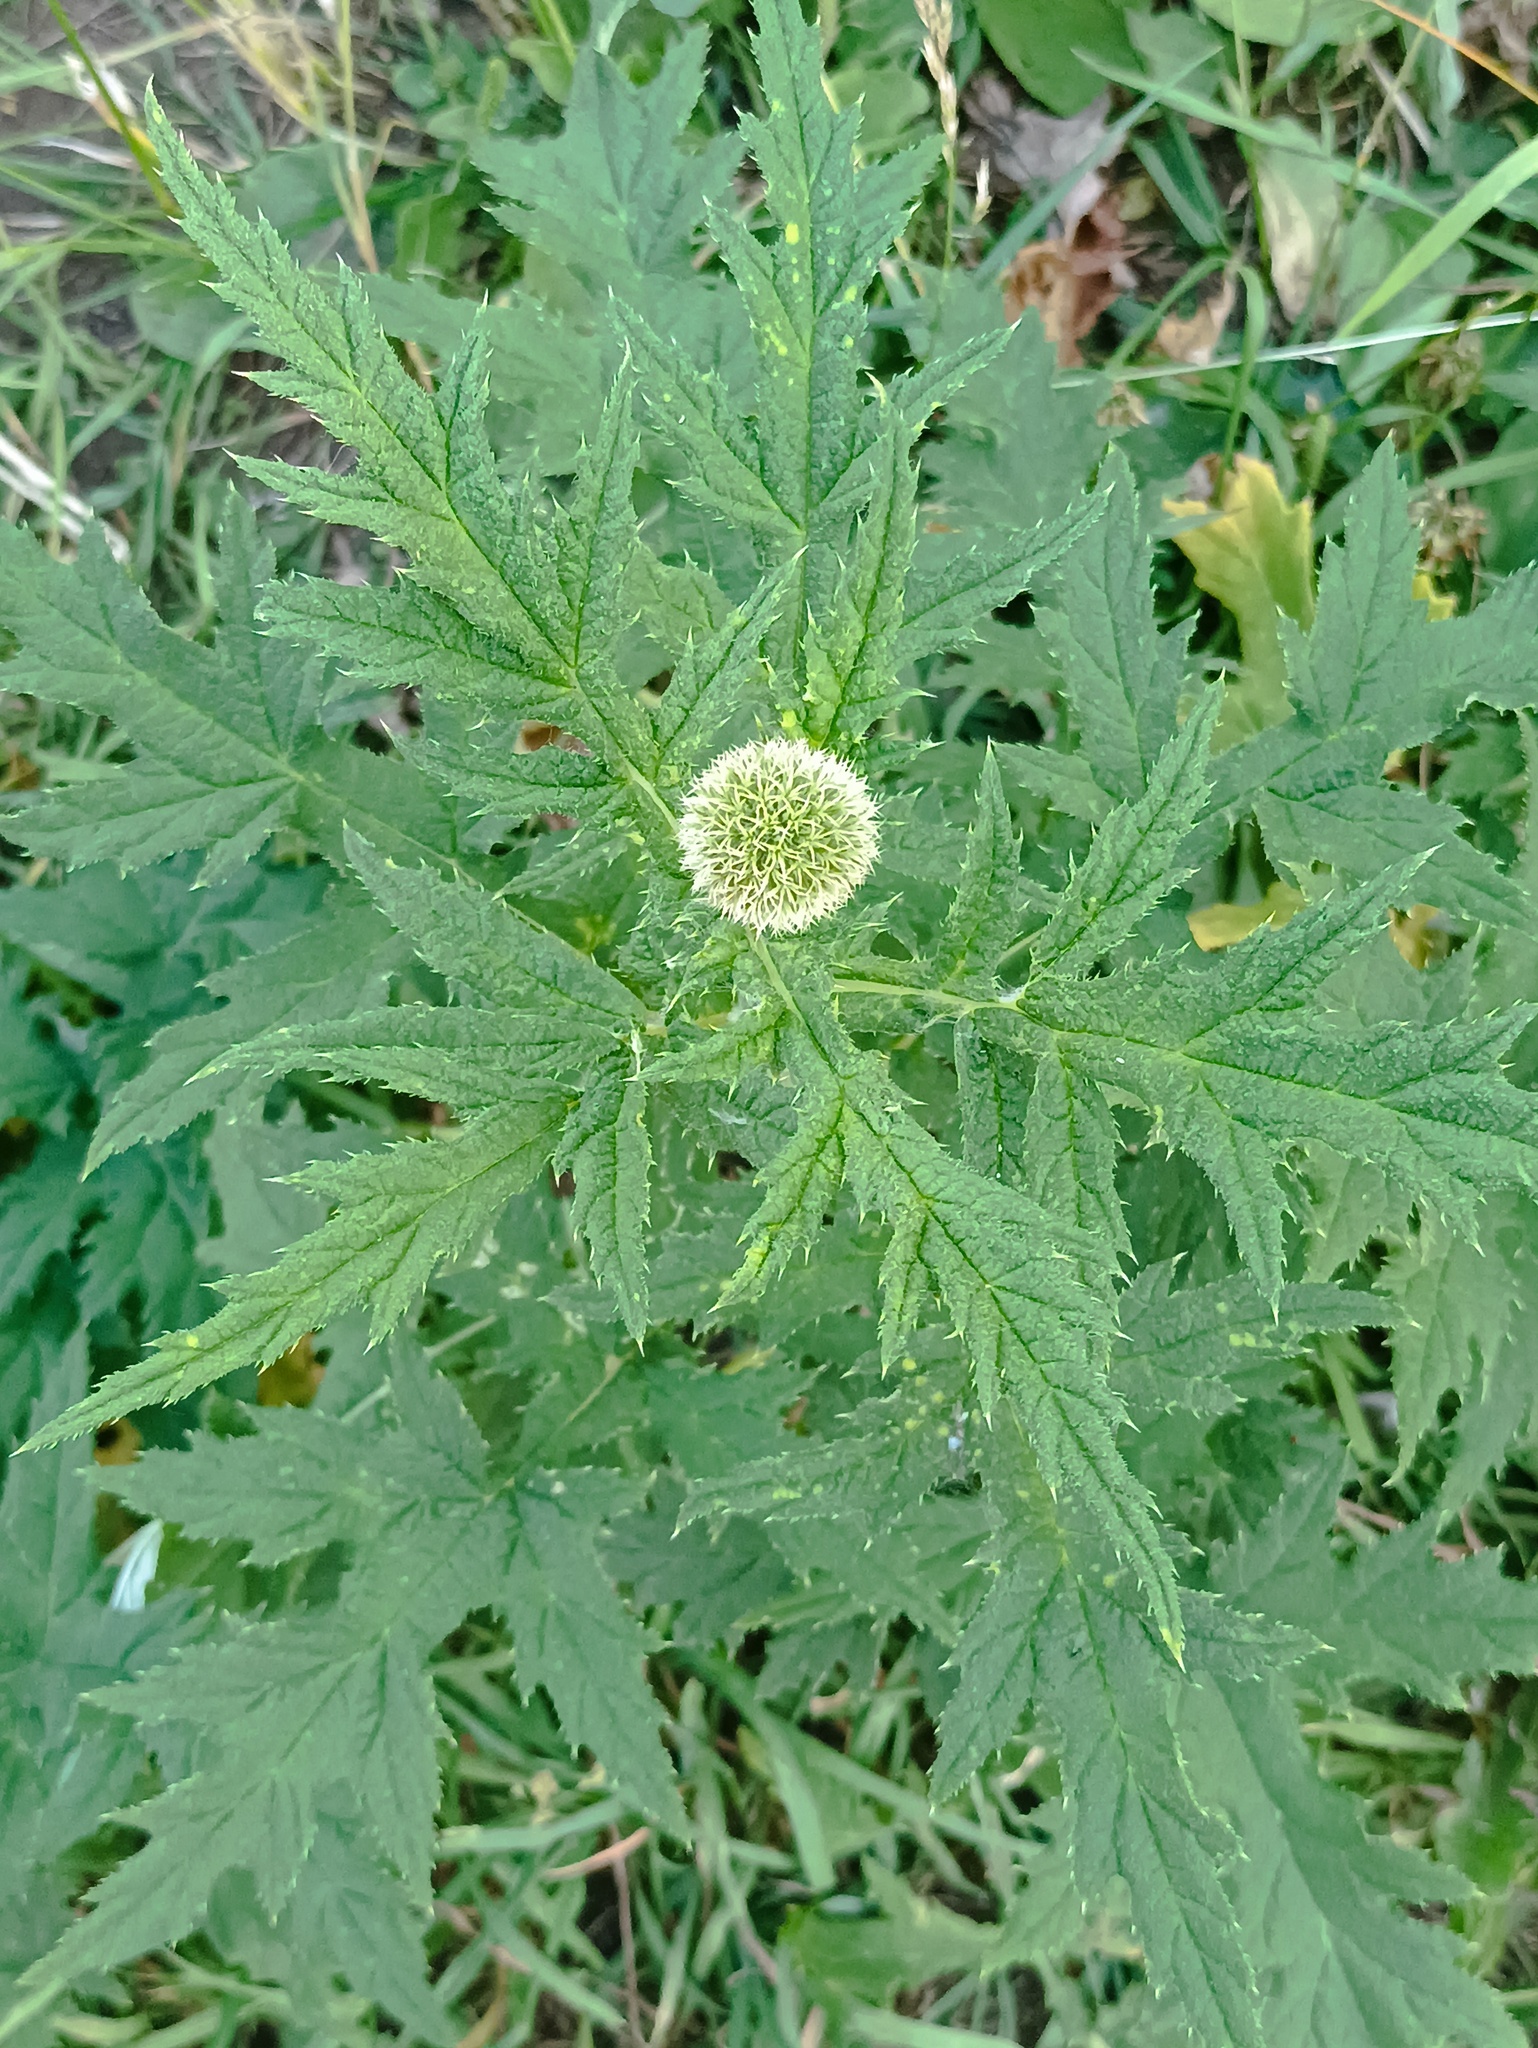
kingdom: Plantae
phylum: Tracheophyta
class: Magnoliopsida
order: Asterales
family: Asteraceae
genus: Echinops
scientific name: Echinops sphaerocephalus
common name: Glandular globe-thistle
